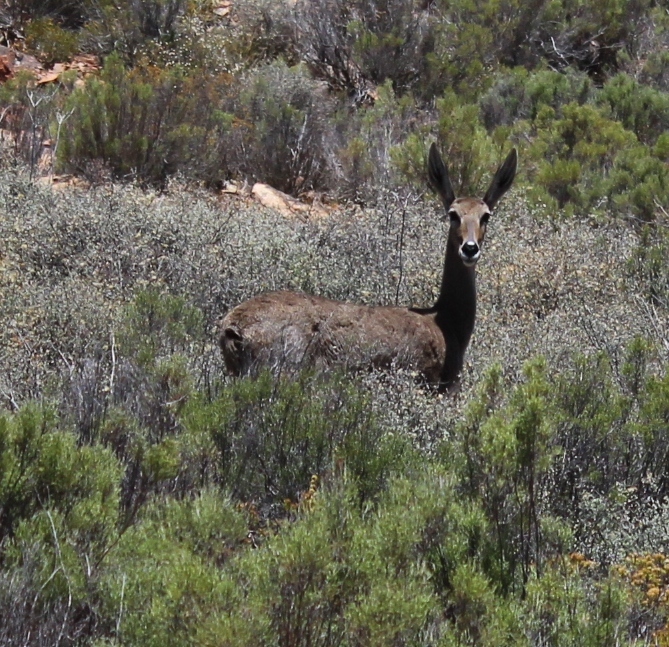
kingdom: Animalia
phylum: Chordata
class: Mammalia
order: Artiodactyla
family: Bovidae
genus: Pelea
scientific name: Pelea capreolus
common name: Common rhebok
